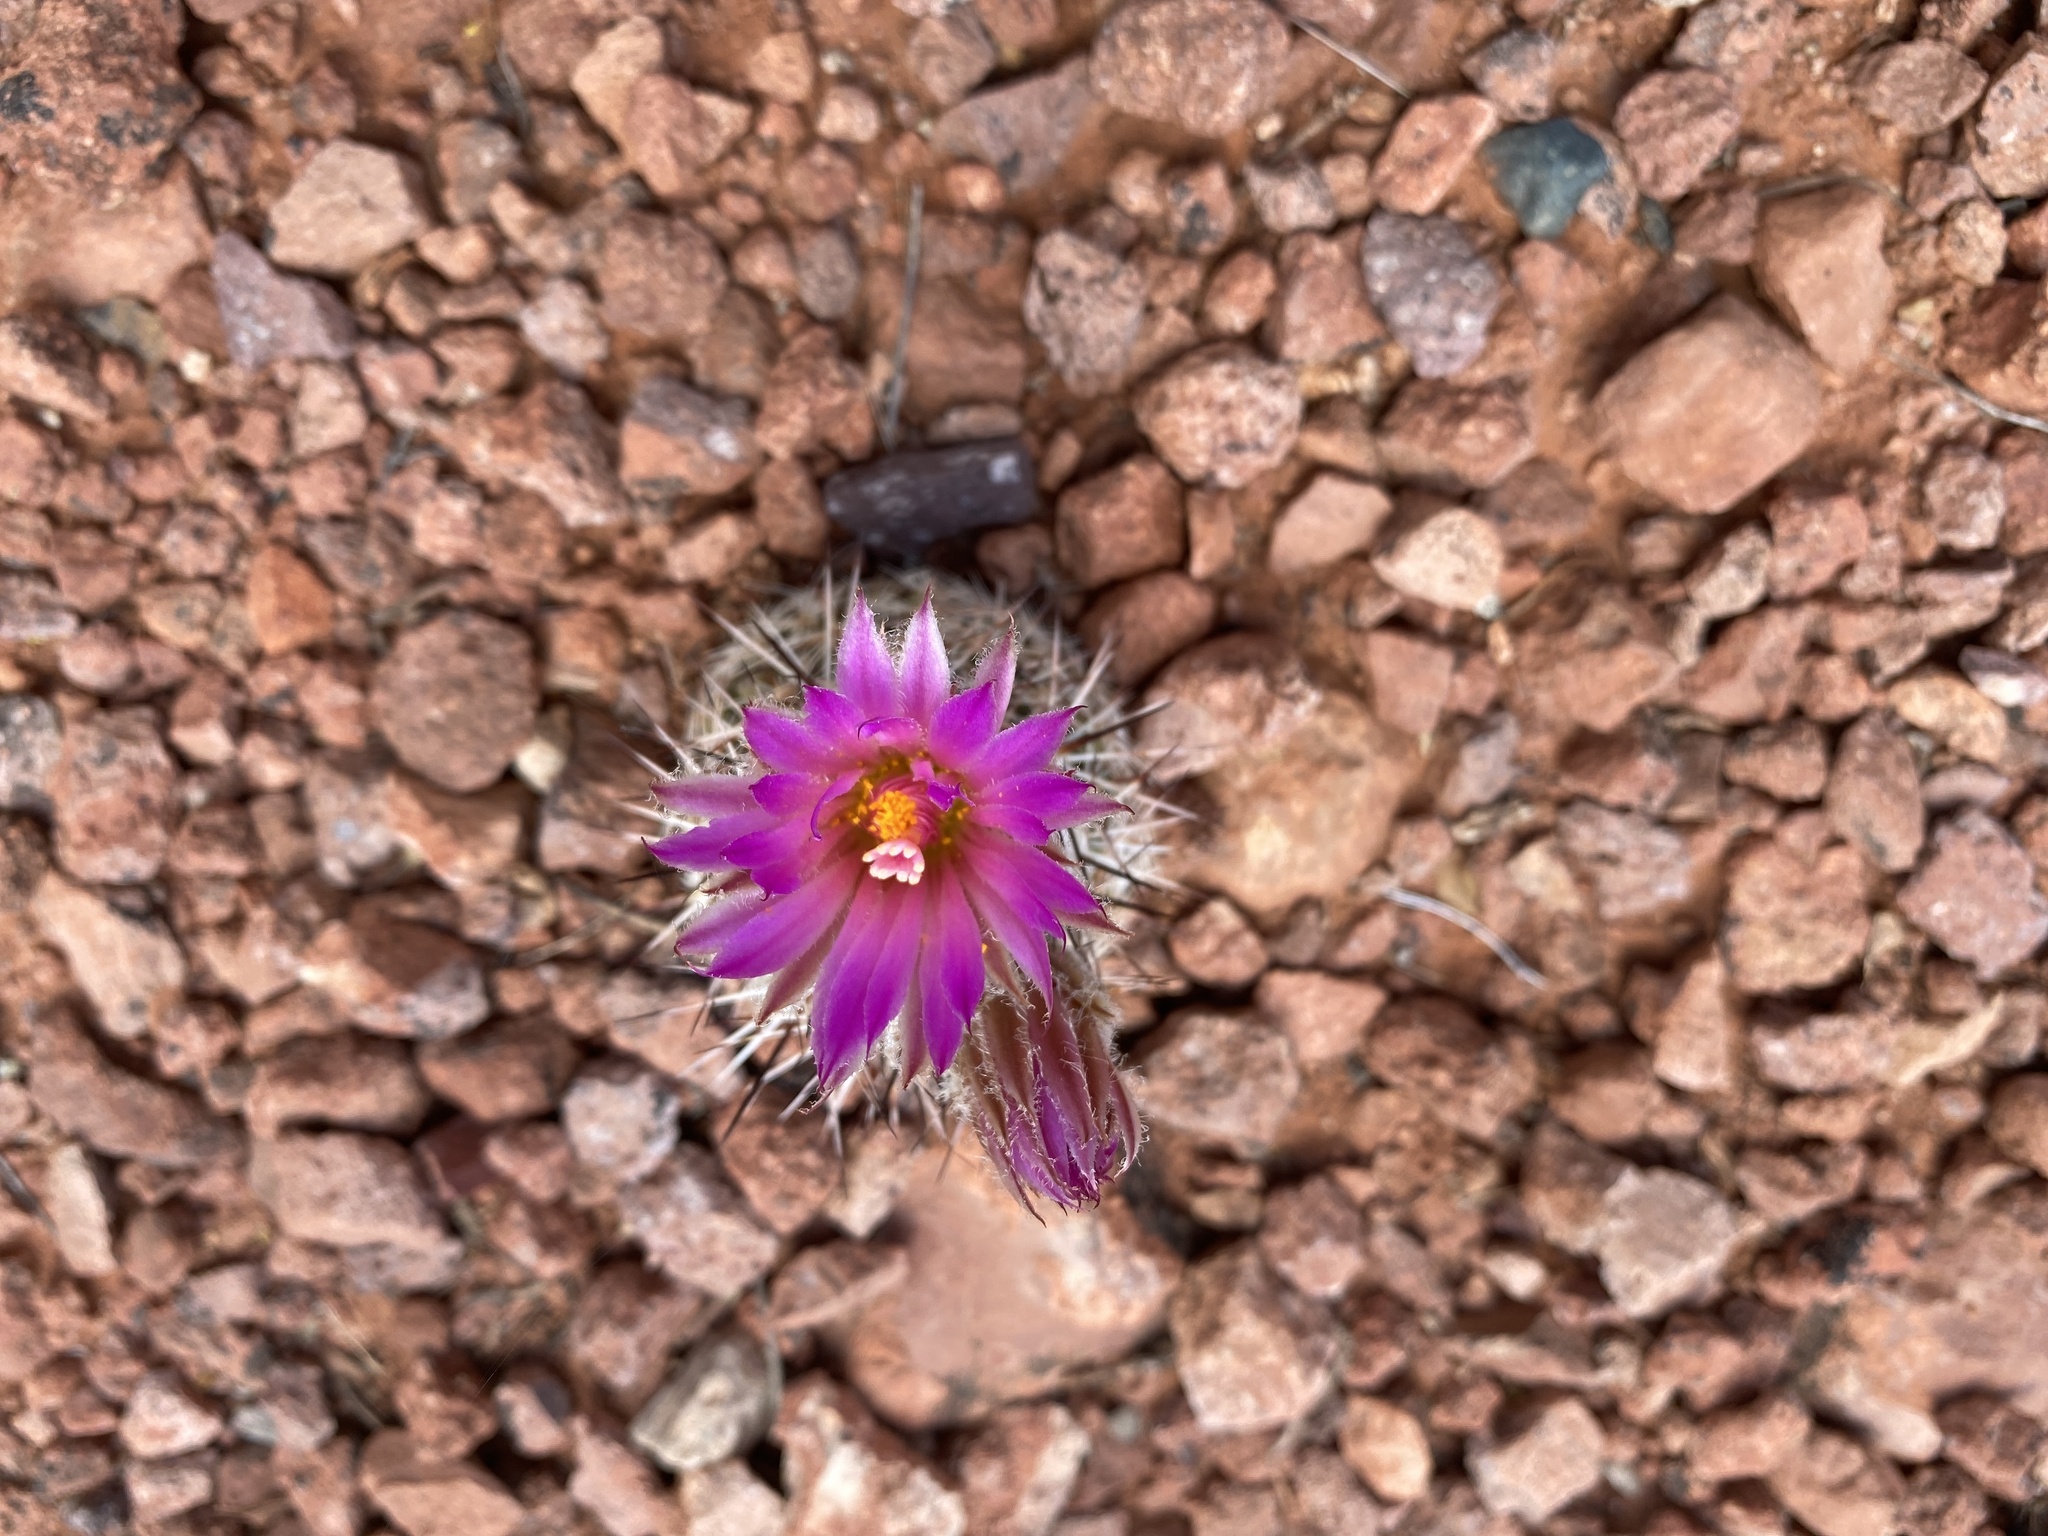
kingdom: Plantae
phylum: Tracheophyta
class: Magnoliopsida
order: Caryophyllales
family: Cactaceae
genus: Pelecyphora
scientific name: Pelecyphora vivipara
